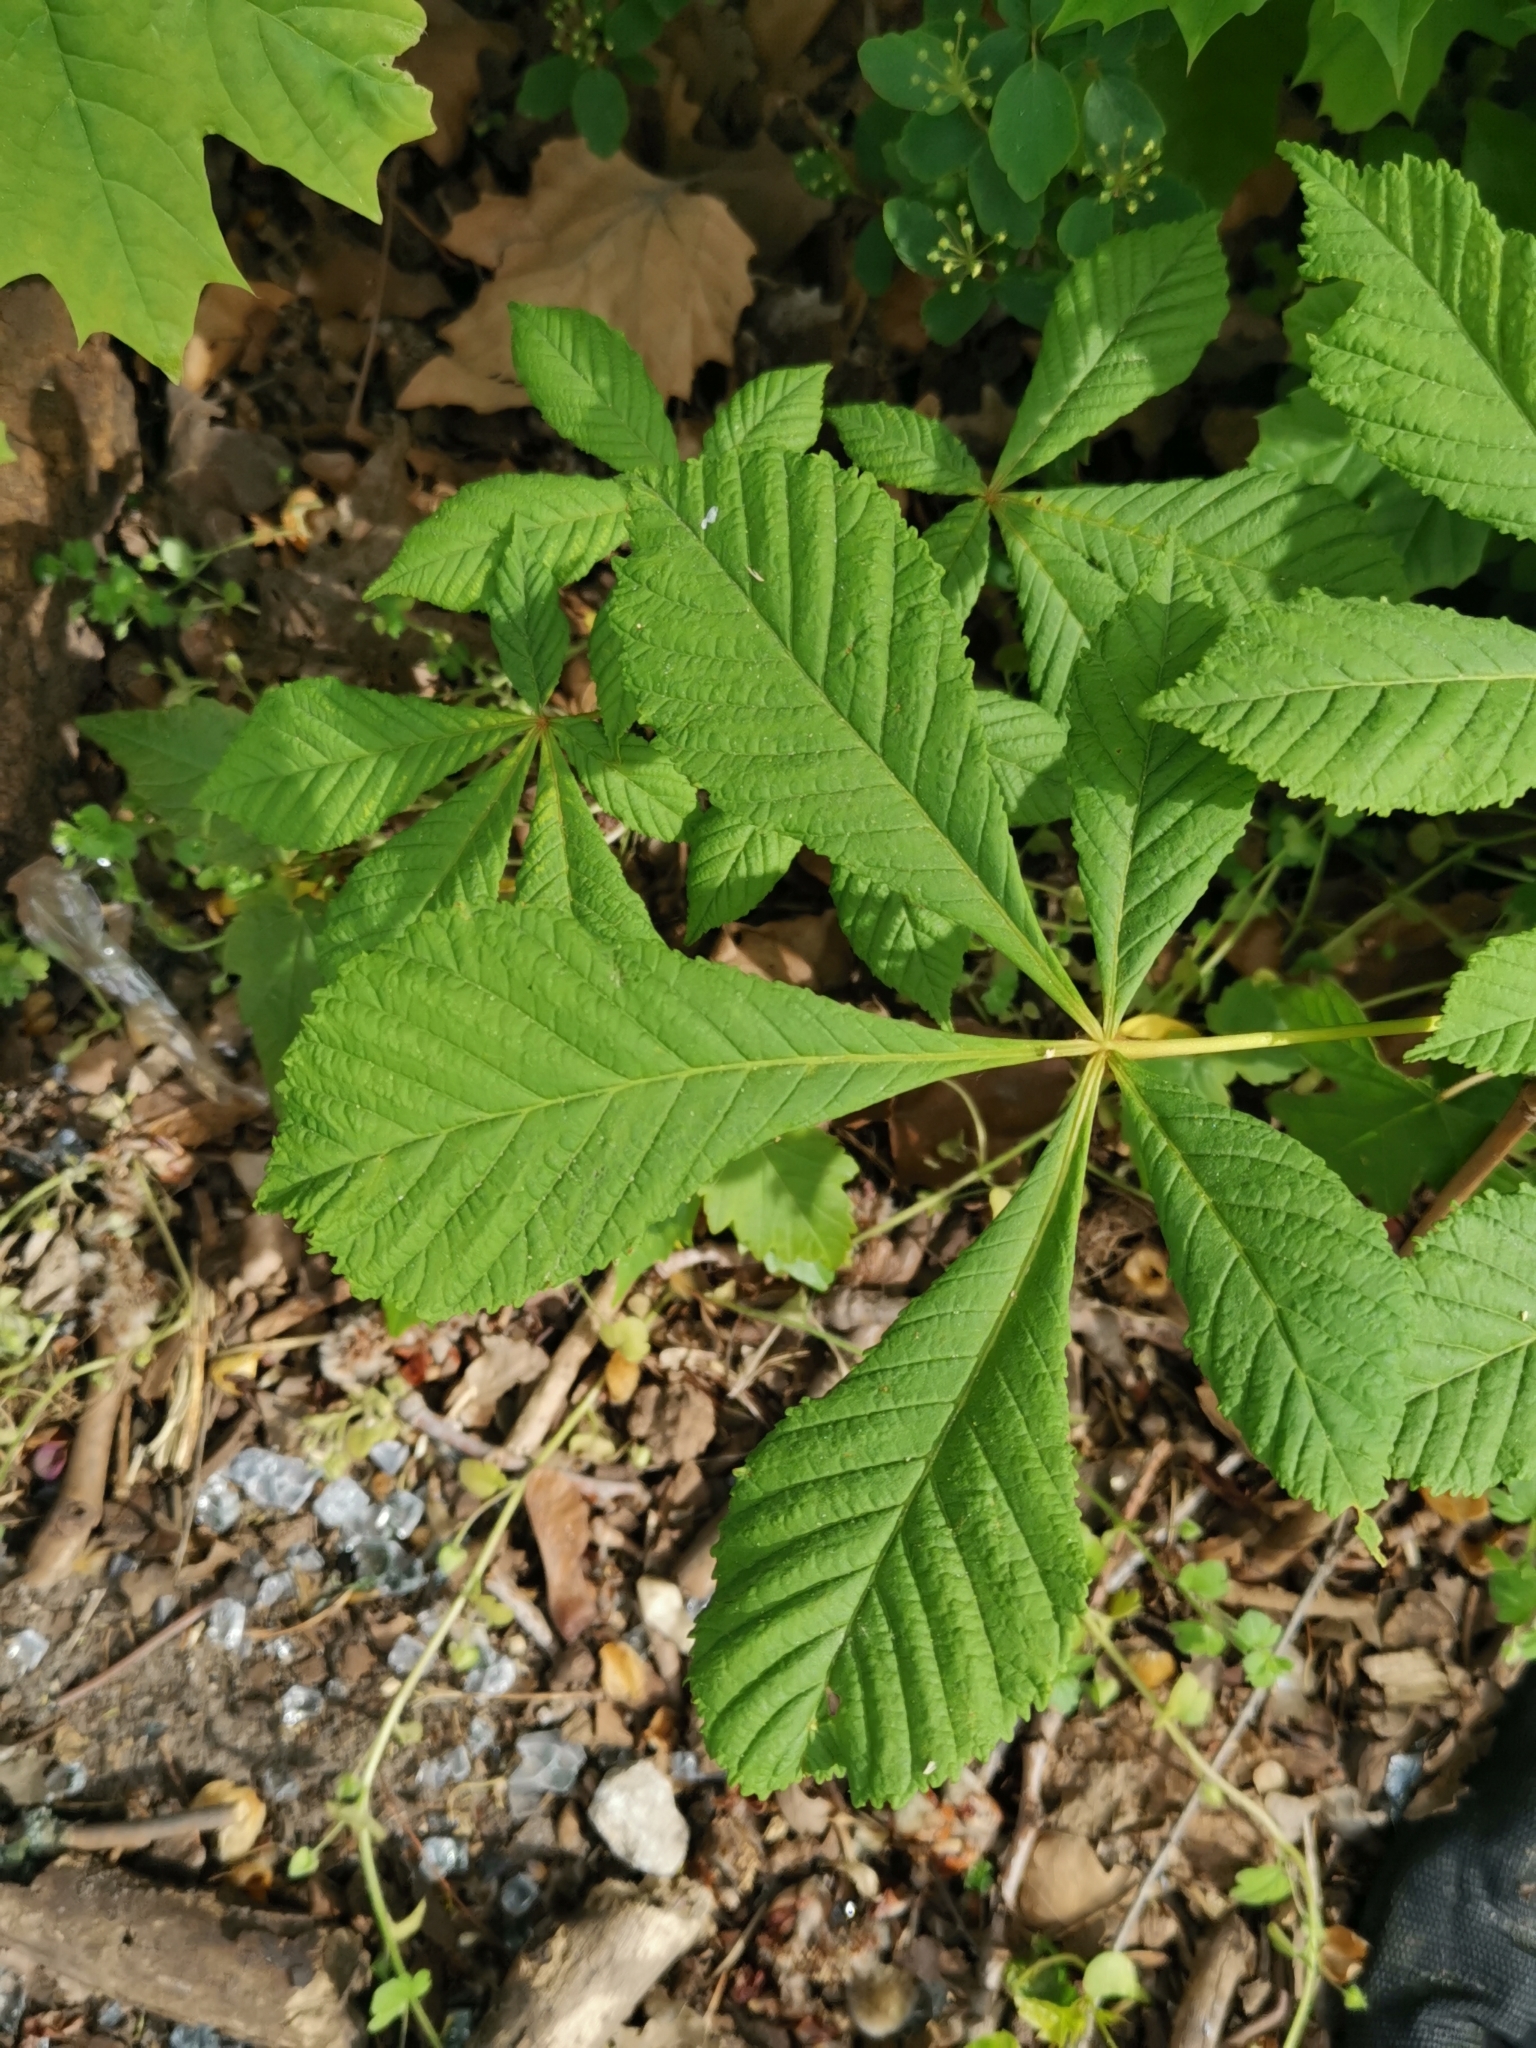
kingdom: Plantae
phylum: Tracheophyta
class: Magnoliopsida
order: Sapindales
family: Sapindaceae
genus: Aesculus
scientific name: Aesculus hippocastanum
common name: Horse-chestnut
